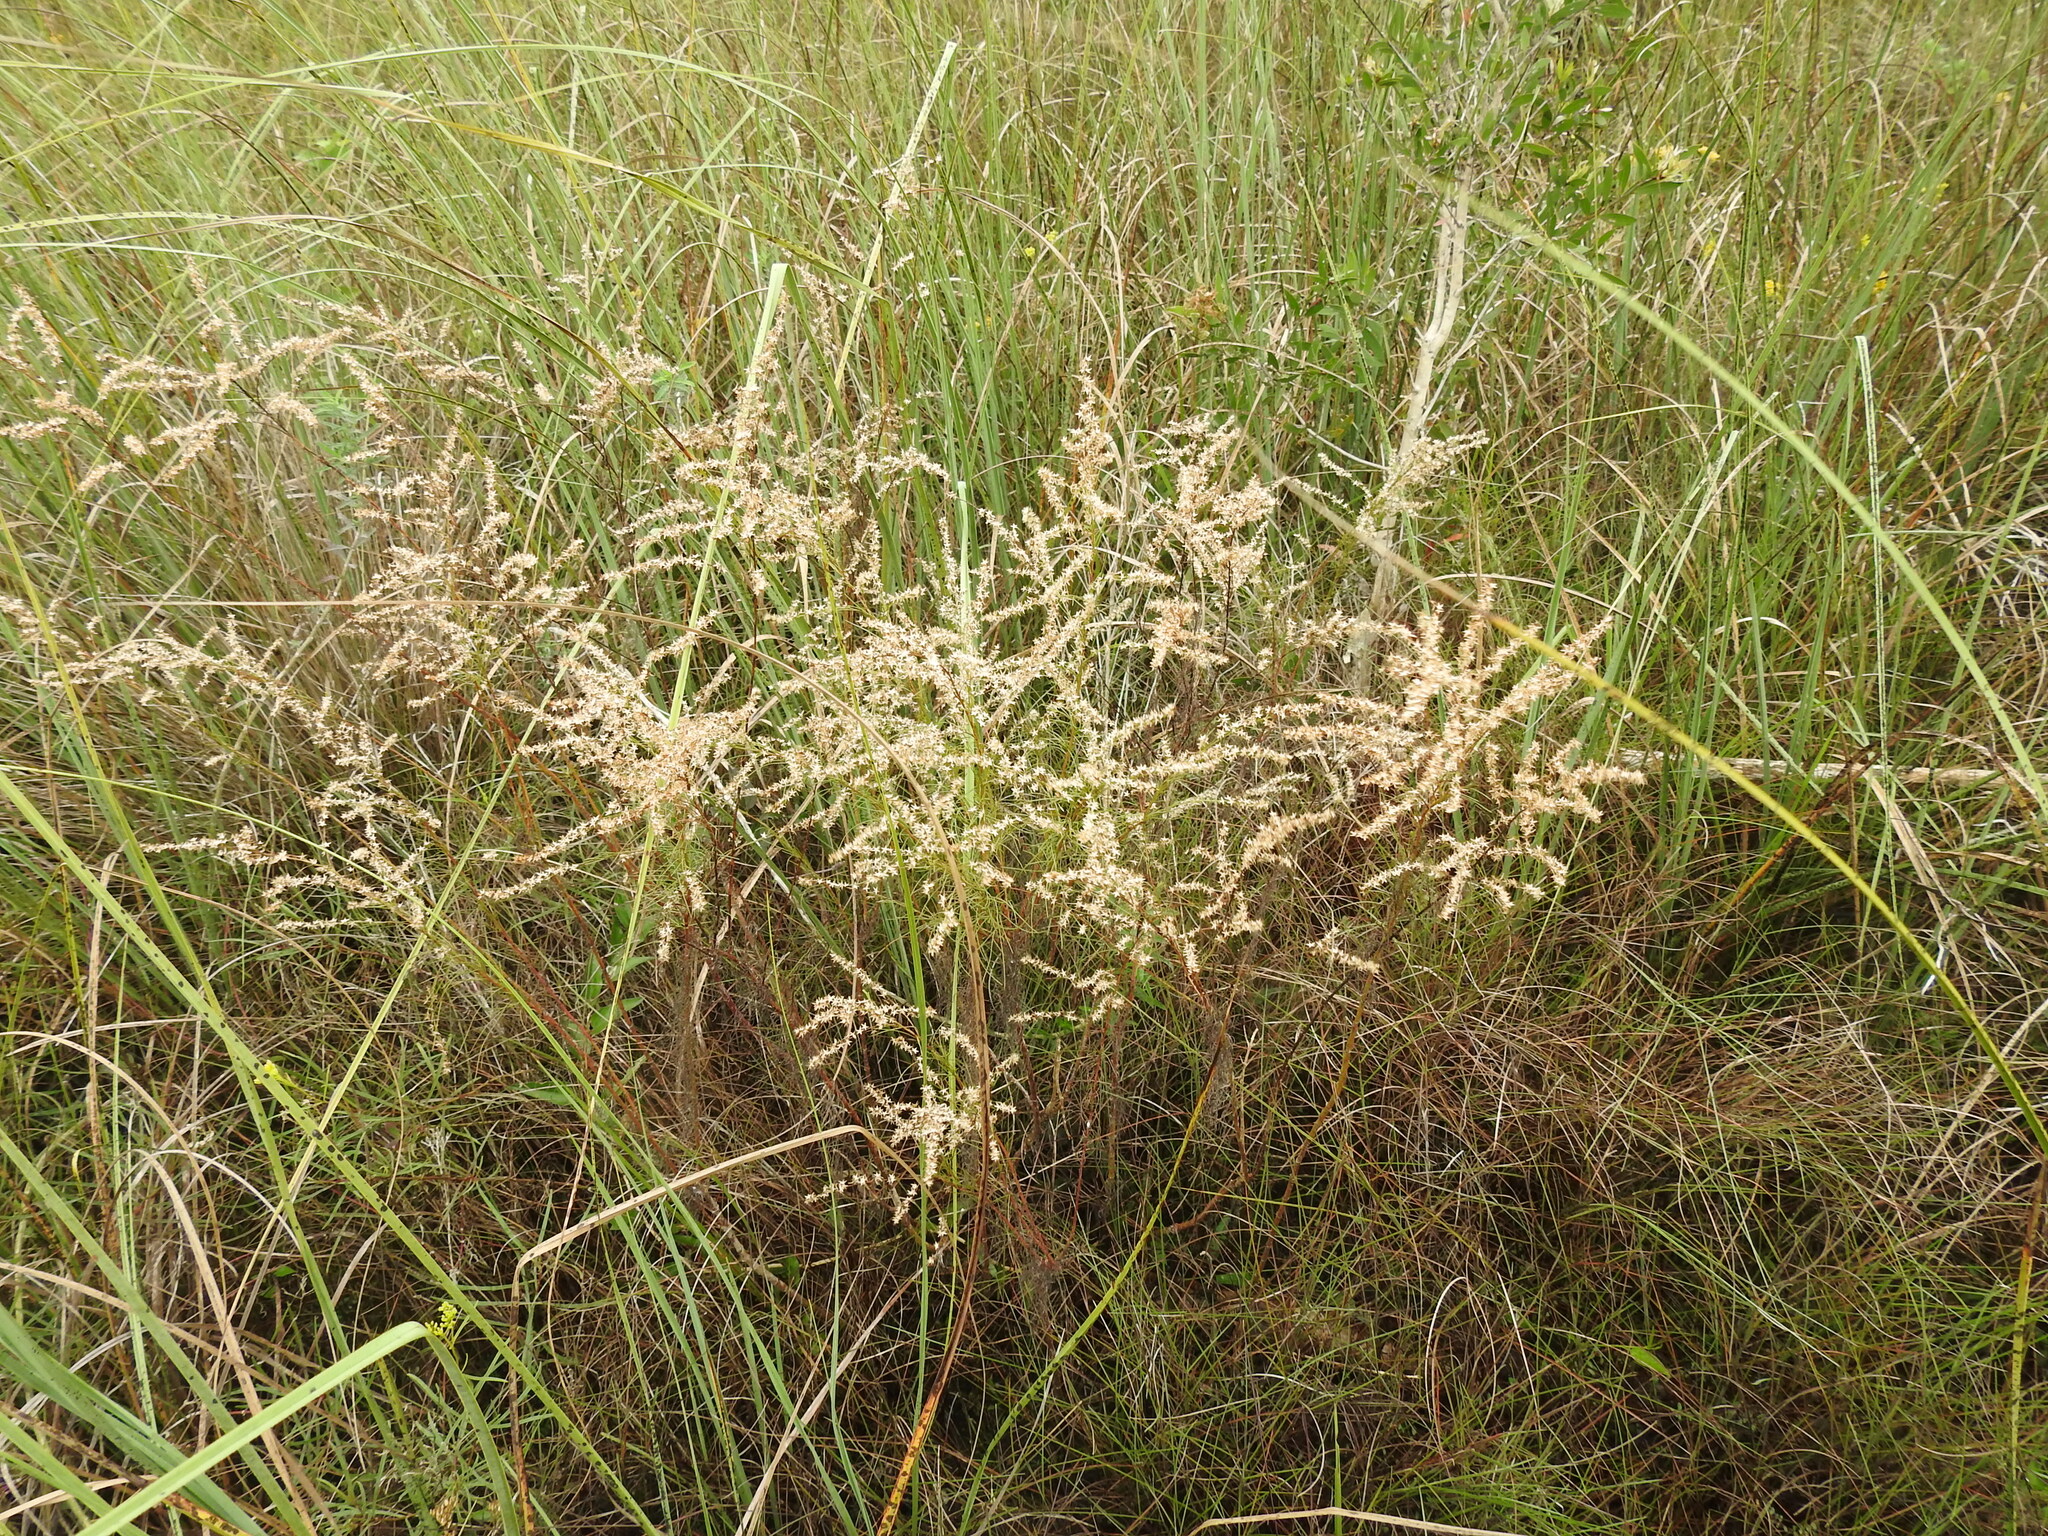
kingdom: Plantae
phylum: Tracheophyta
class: Magnoliopsida
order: Asterales
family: Asteraceae
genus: Eupatorium
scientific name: Eupatorium leptophyllum
